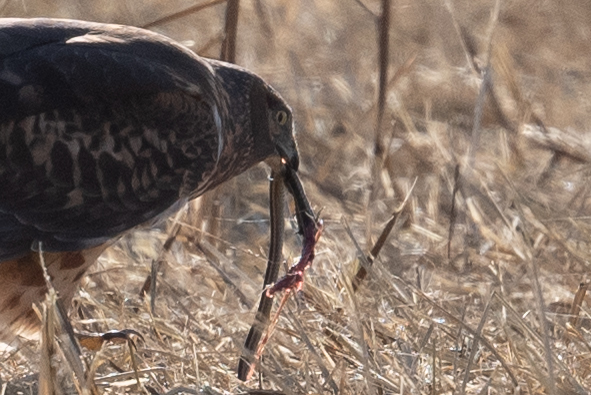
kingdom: Animalia
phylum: Chordata
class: Squamata
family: Colubridae
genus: Thamnophis
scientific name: Thamnophis sirtalis
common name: Common garter snake
